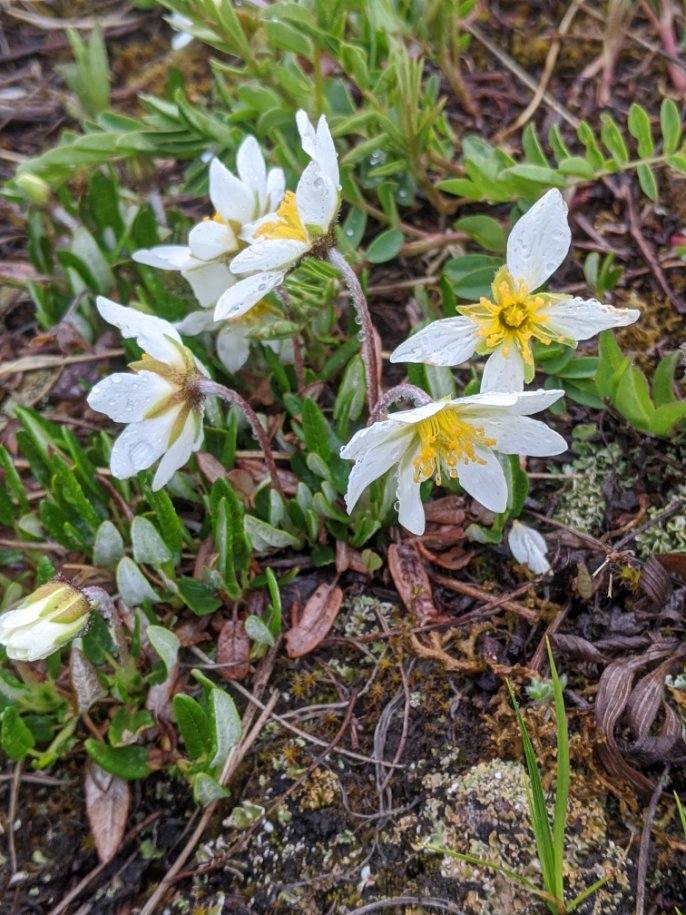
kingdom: Plantae
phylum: Tracheophyta
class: Magnoliopsida
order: Rosales
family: Rosaceae
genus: Dryas
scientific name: Dryas integrifolia
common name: Entire-leaved mountain avens
